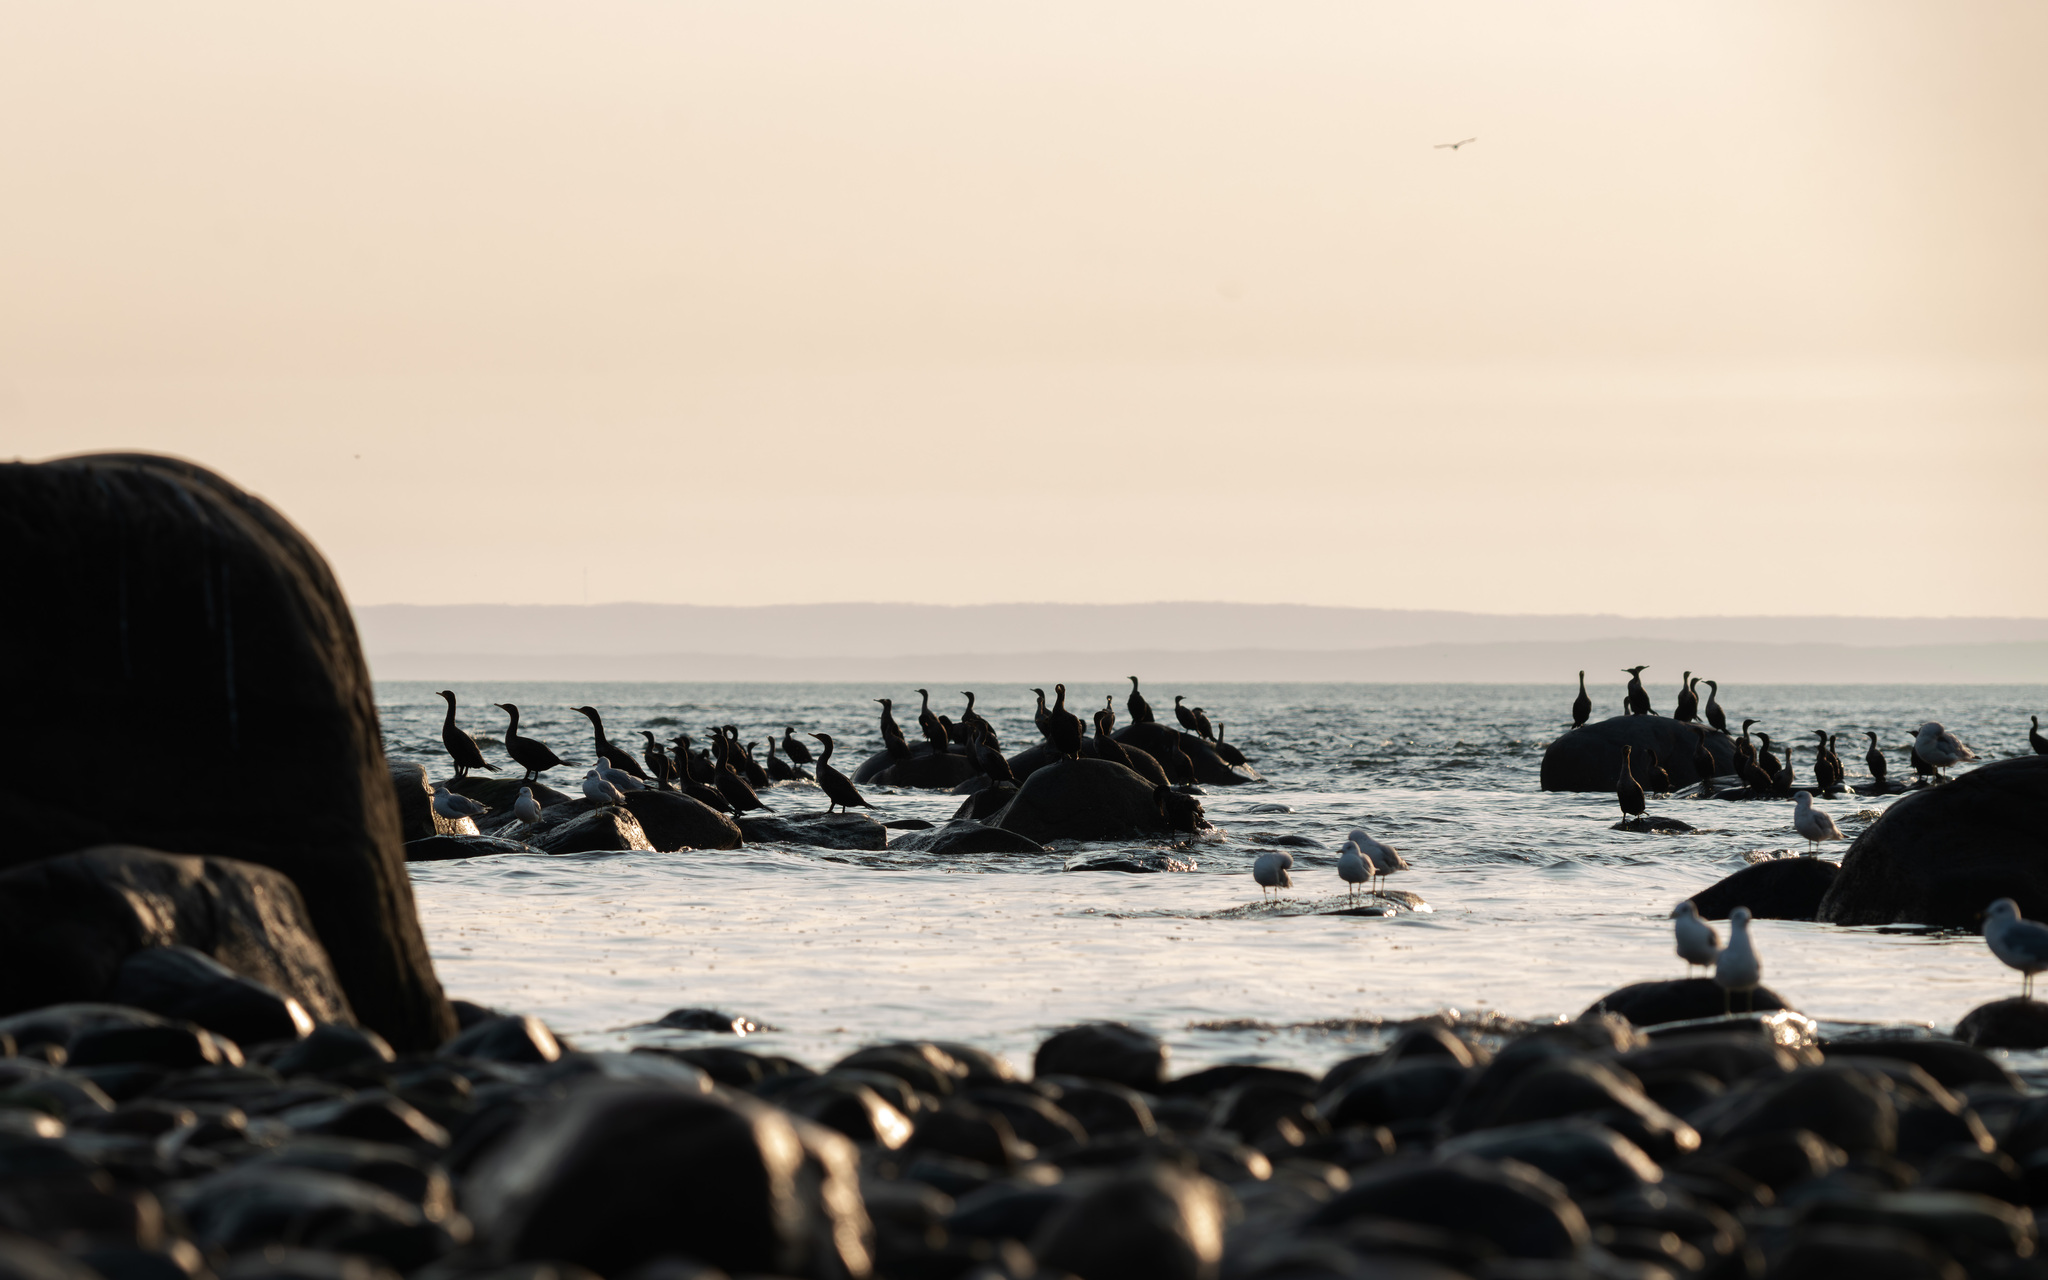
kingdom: Animalia
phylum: Chordata
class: Aves
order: Suliformes
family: Phalacrocoracidae
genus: Phalacrocorax
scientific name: Phalacrocorax auritus
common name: Double-crested cormorant
